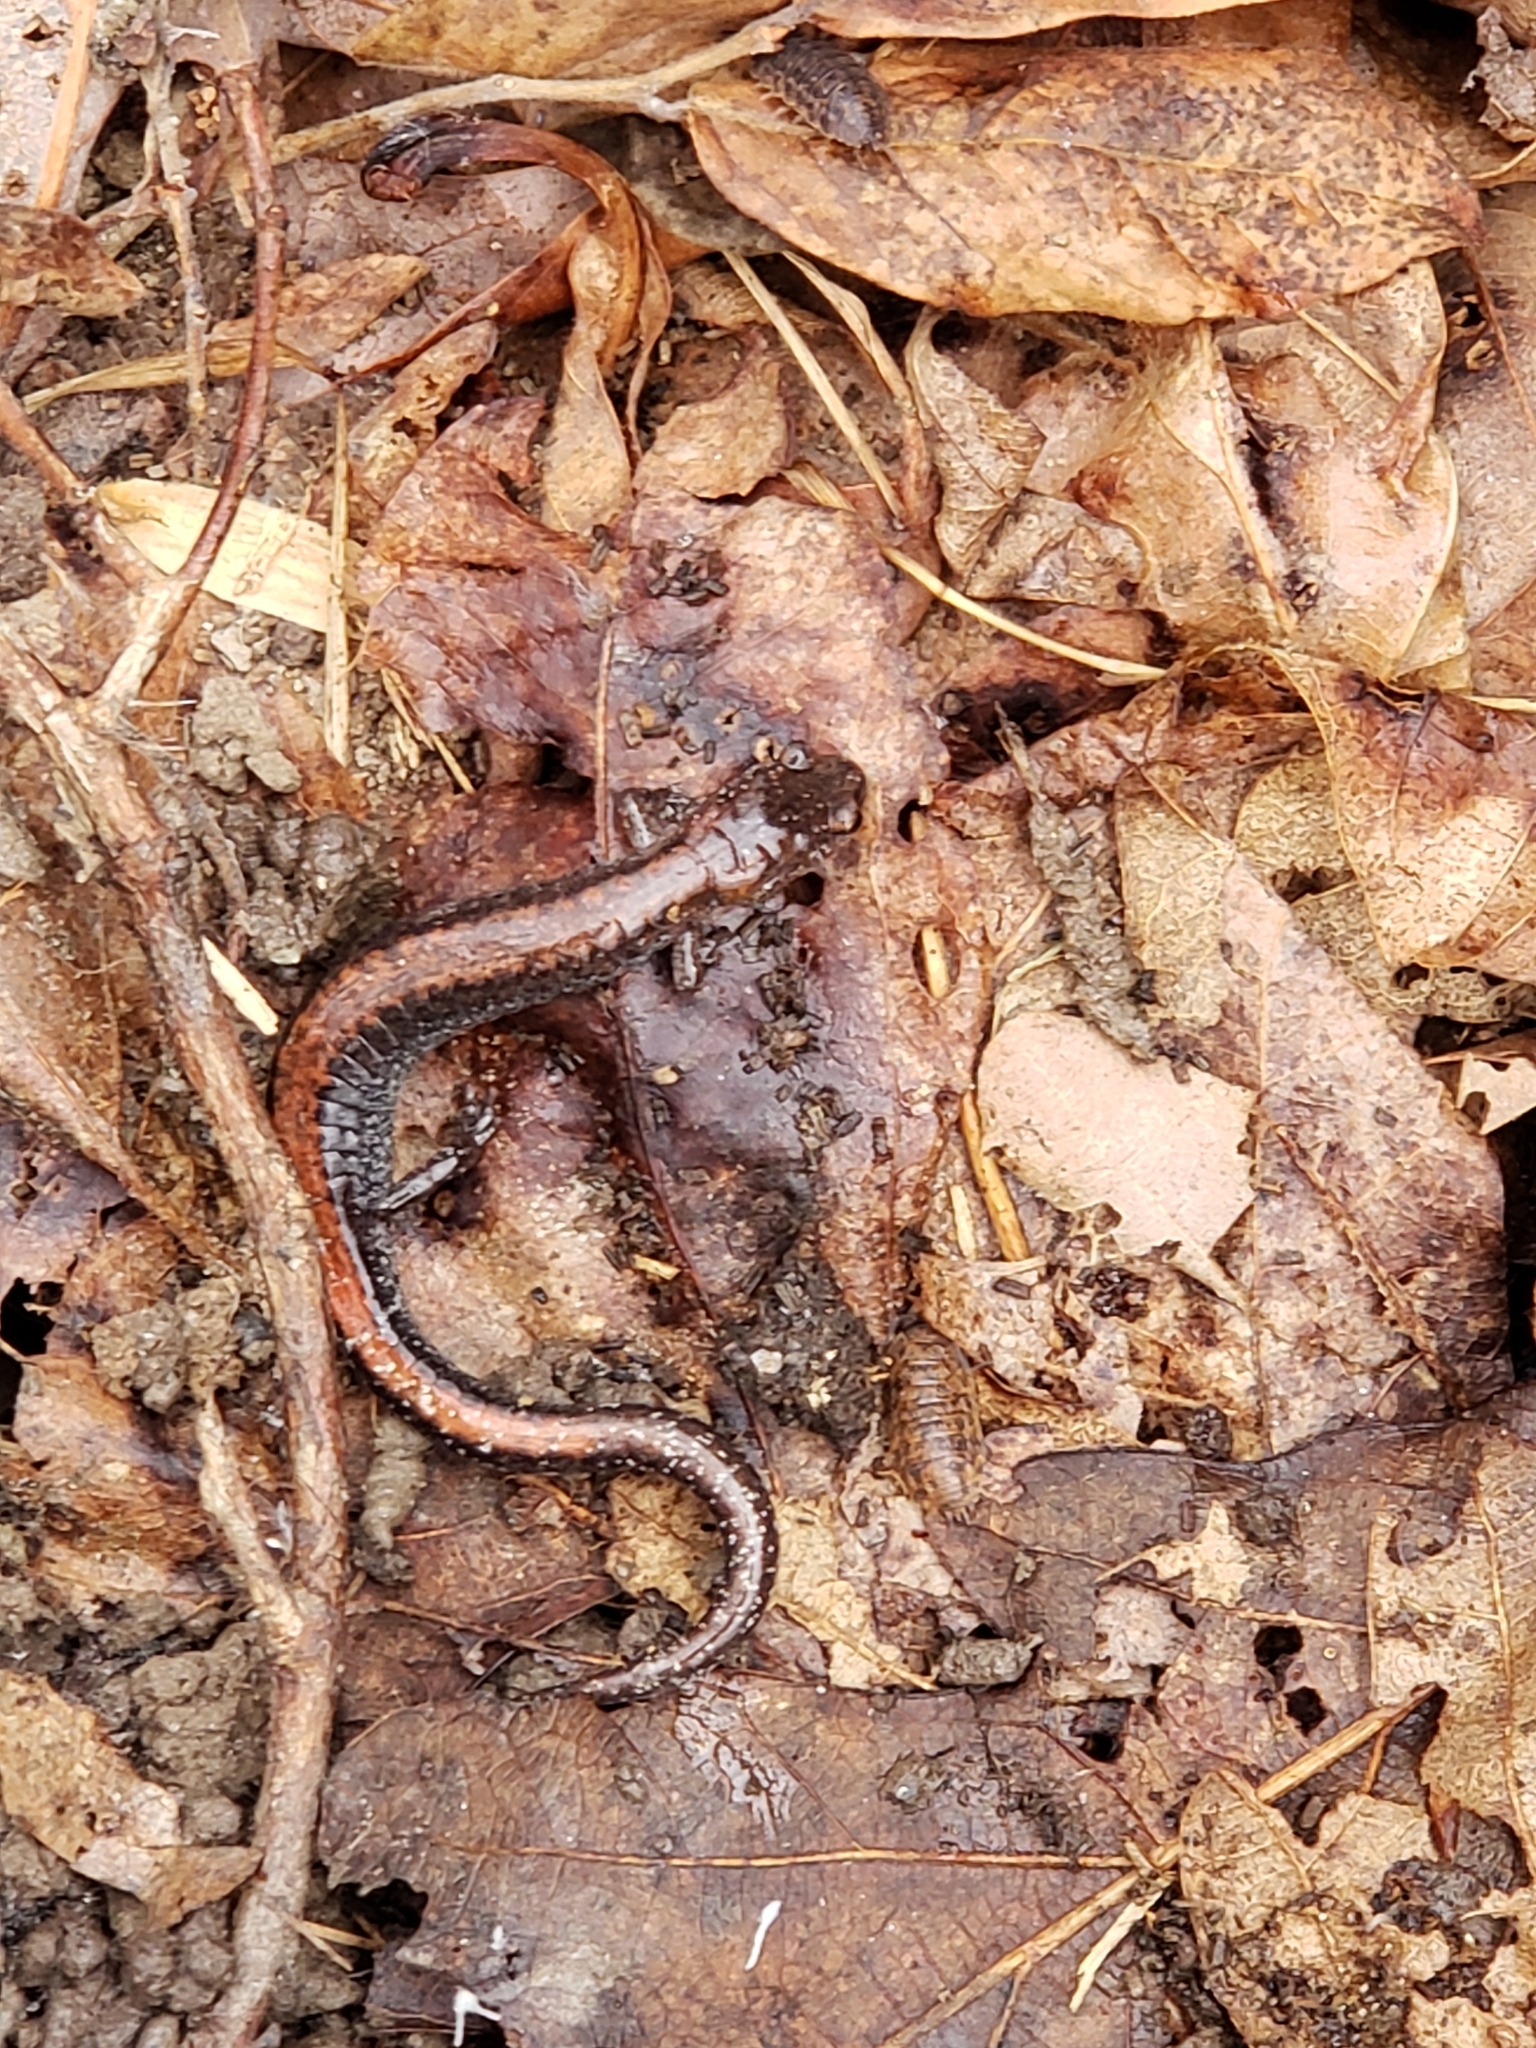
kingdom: Animalia
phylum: Chordata
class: Amphibia
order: Caudata
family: Plethodontidae
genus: Plethodon
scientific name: Plethodon cinereus
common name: Redback salamander
